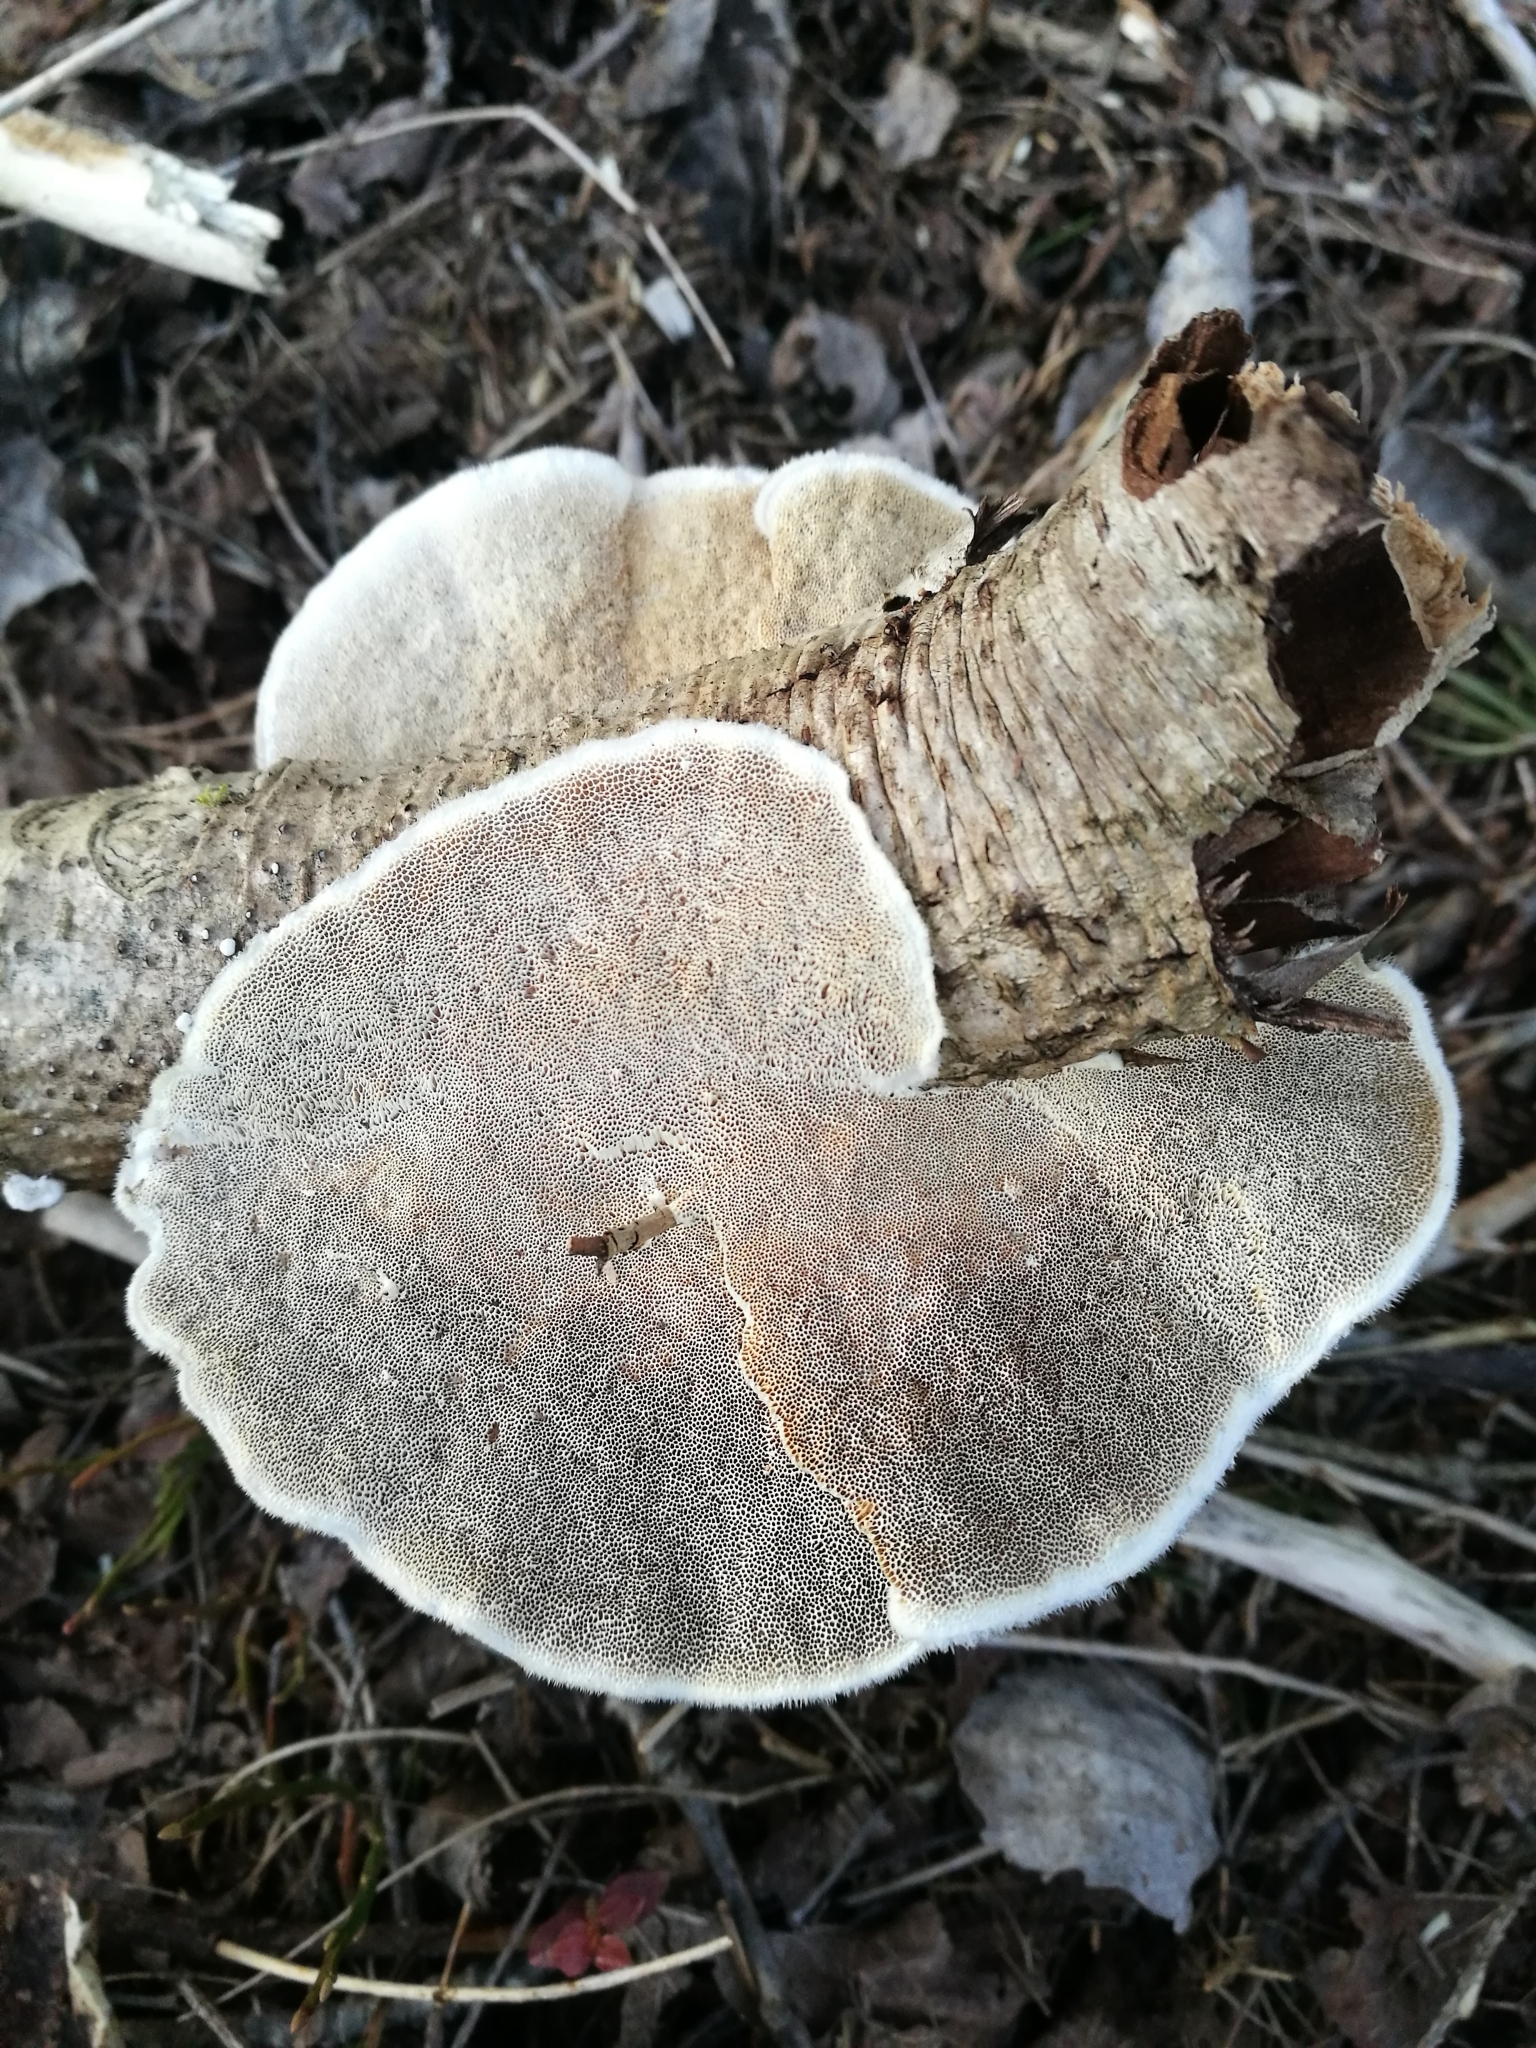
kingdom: Fungi
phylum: Basidiomycota
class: Agaricomycetes
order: Polyporales
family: Polyporaceae
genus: Trametes
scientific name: Trametes hirsuta
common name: Hairy bracket
